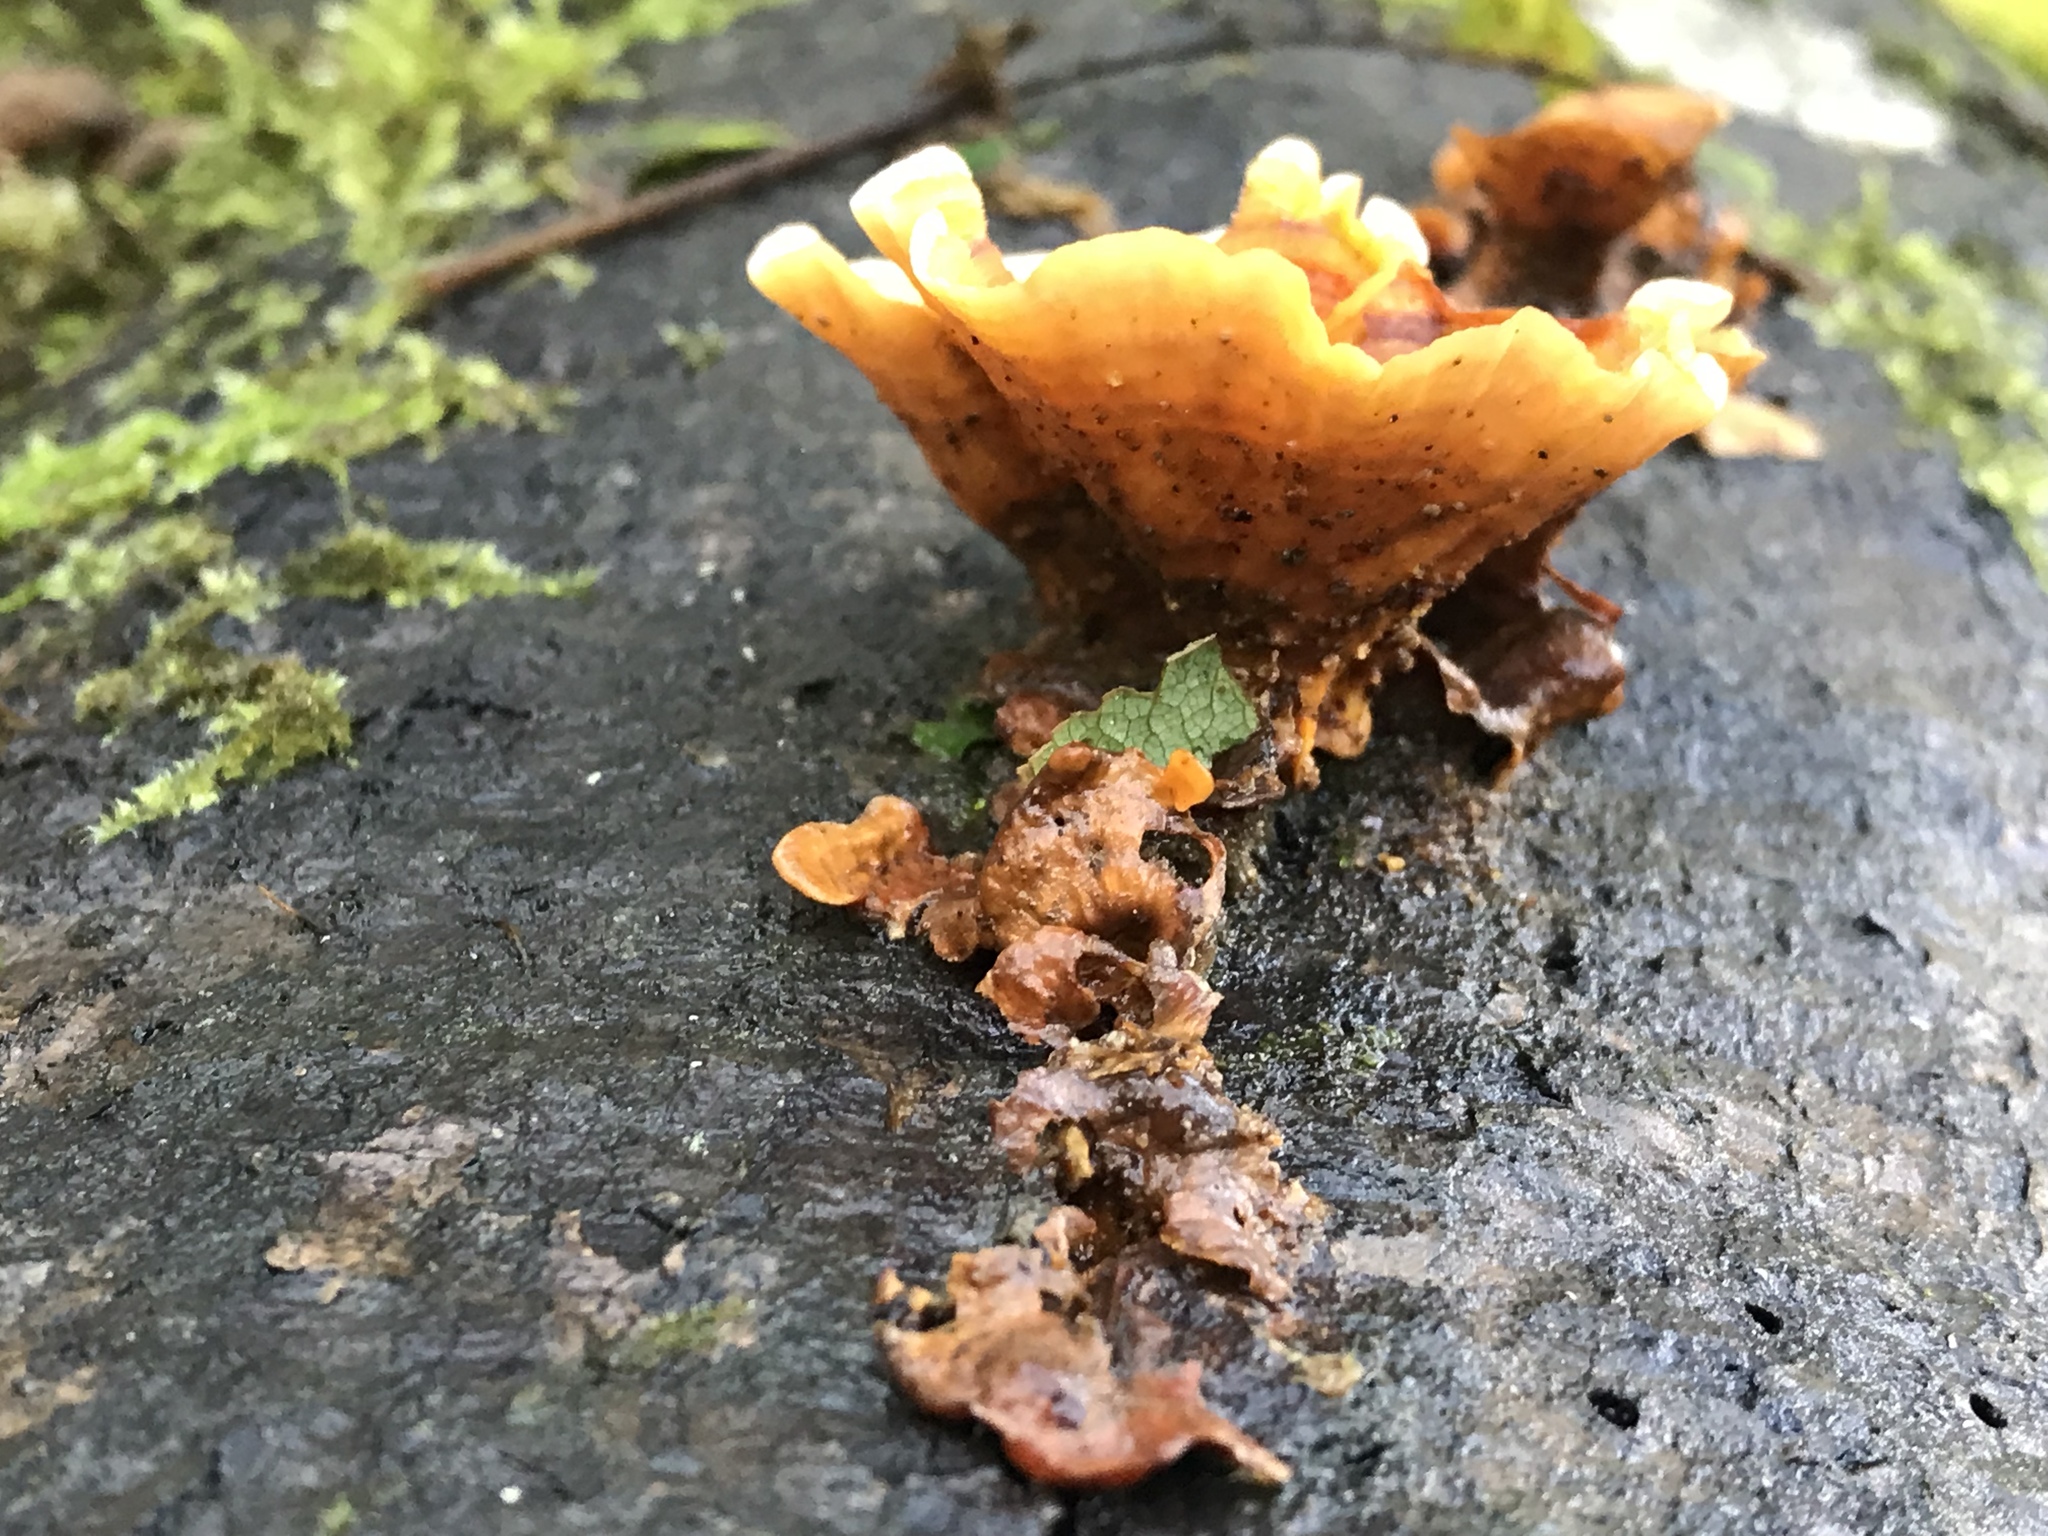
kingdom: Fungi
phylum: Basidiomycota
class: Agaricomycetes
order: Russulales
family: Stereaceae
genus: Stereum
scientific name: Stereum hirsutum
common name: Hairy curtain crust
